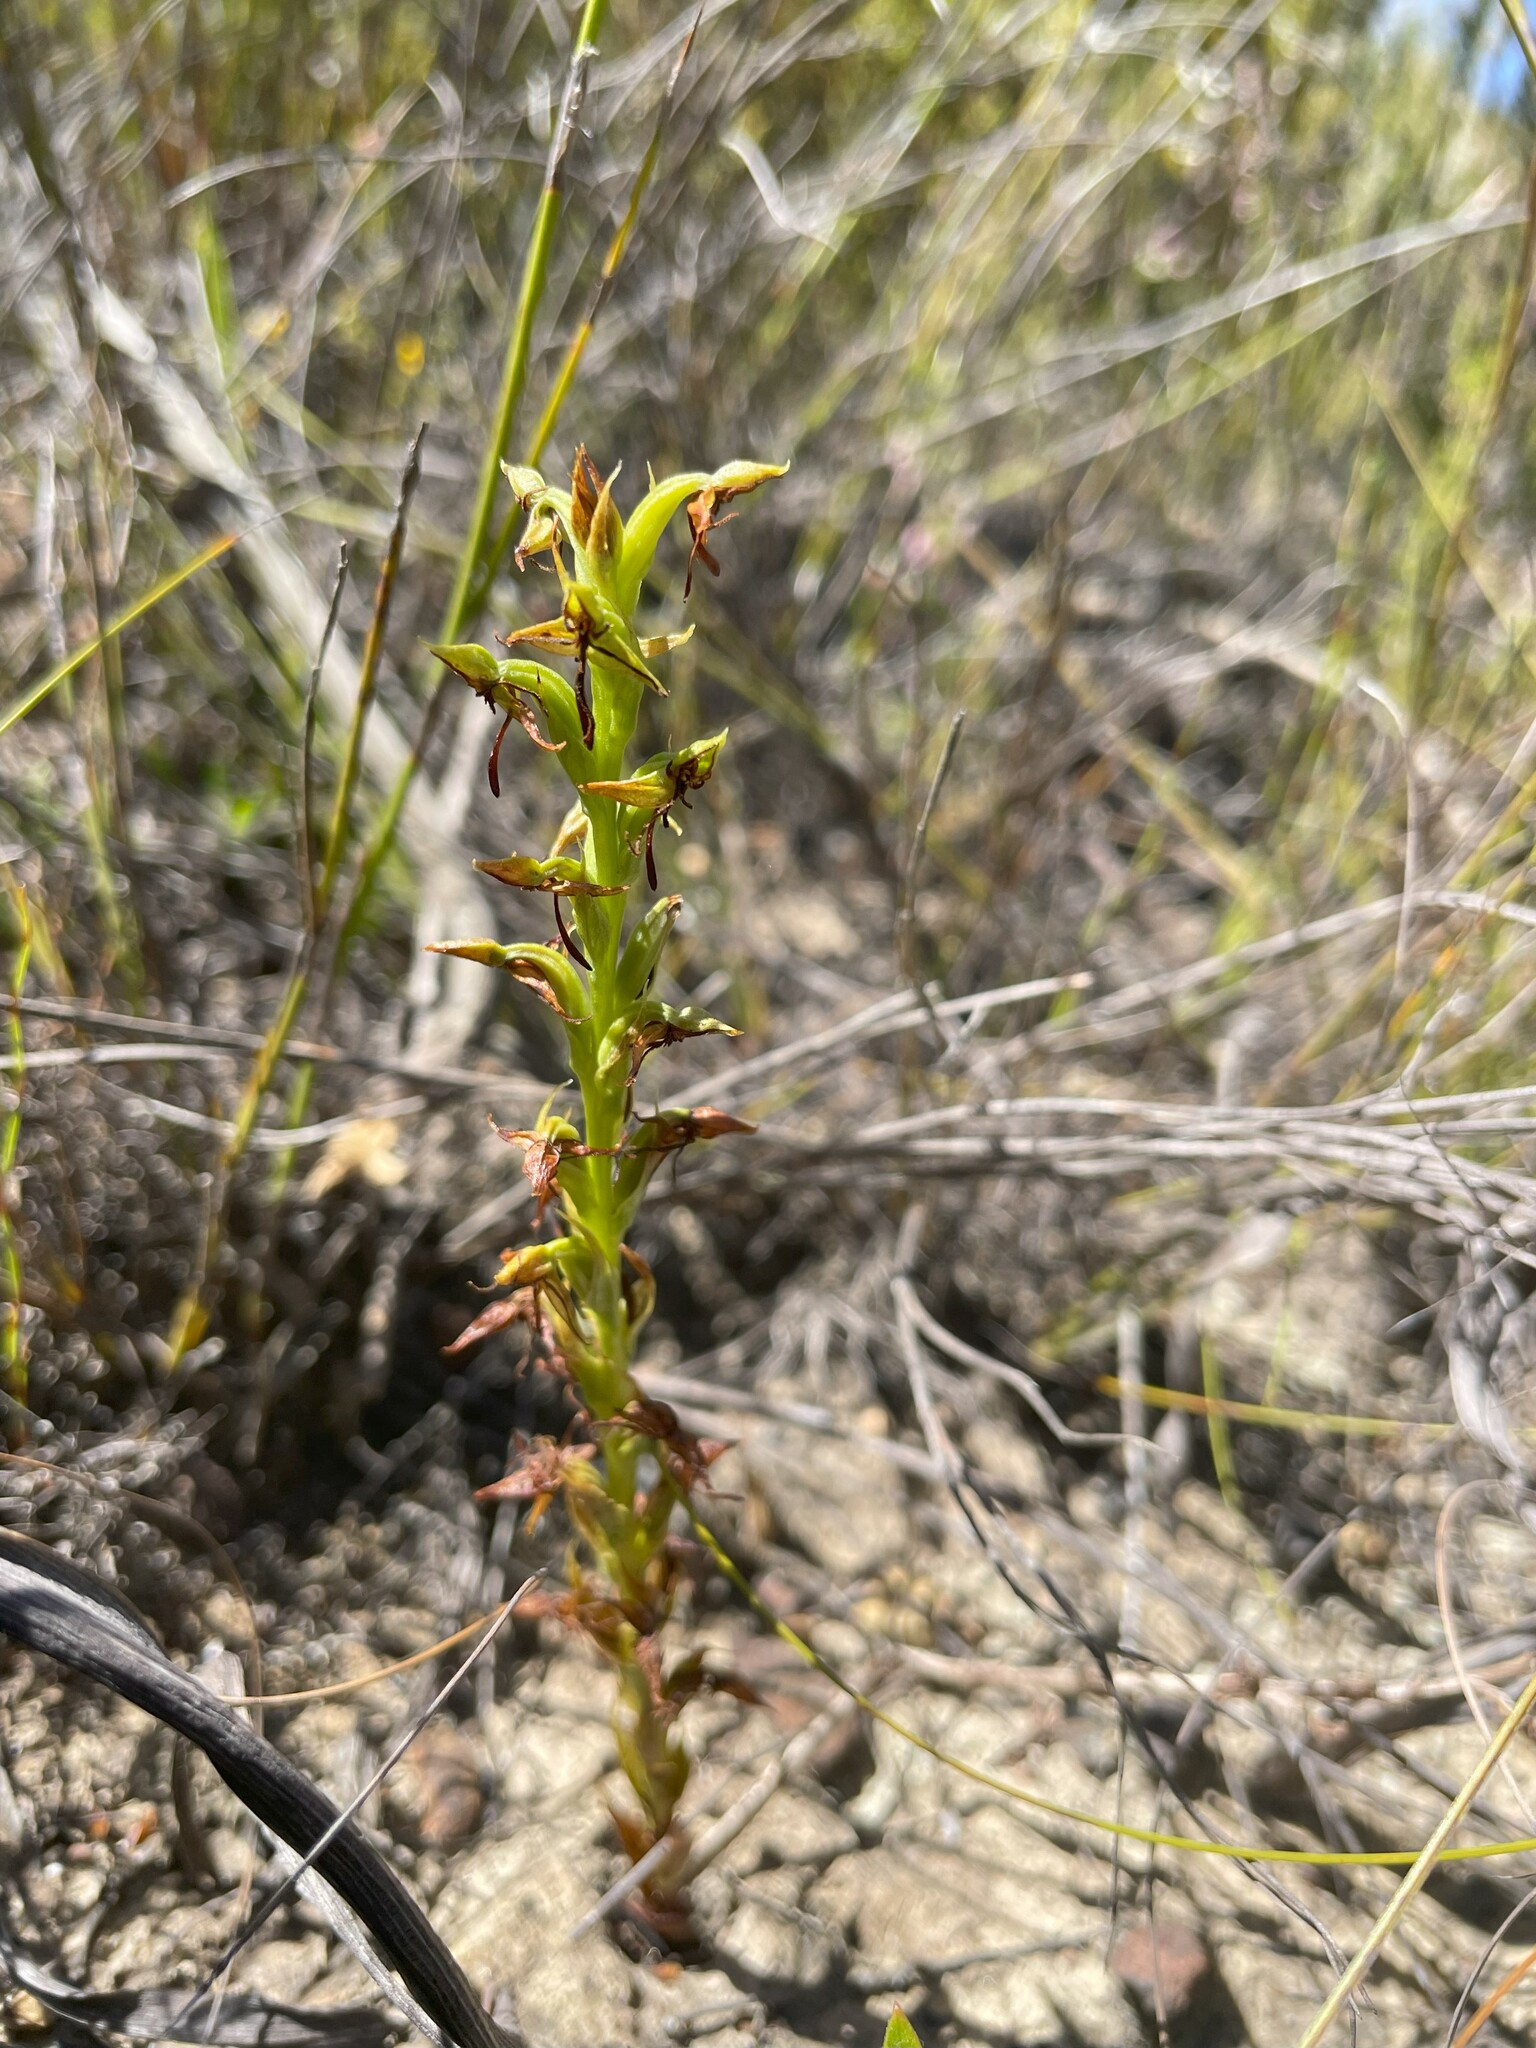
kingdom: Plantae
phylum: Tracheophyta
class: Liliopsida
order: Asparagales
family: Orchidaceae
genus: Habenaria
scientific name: Habenaria lithophila
